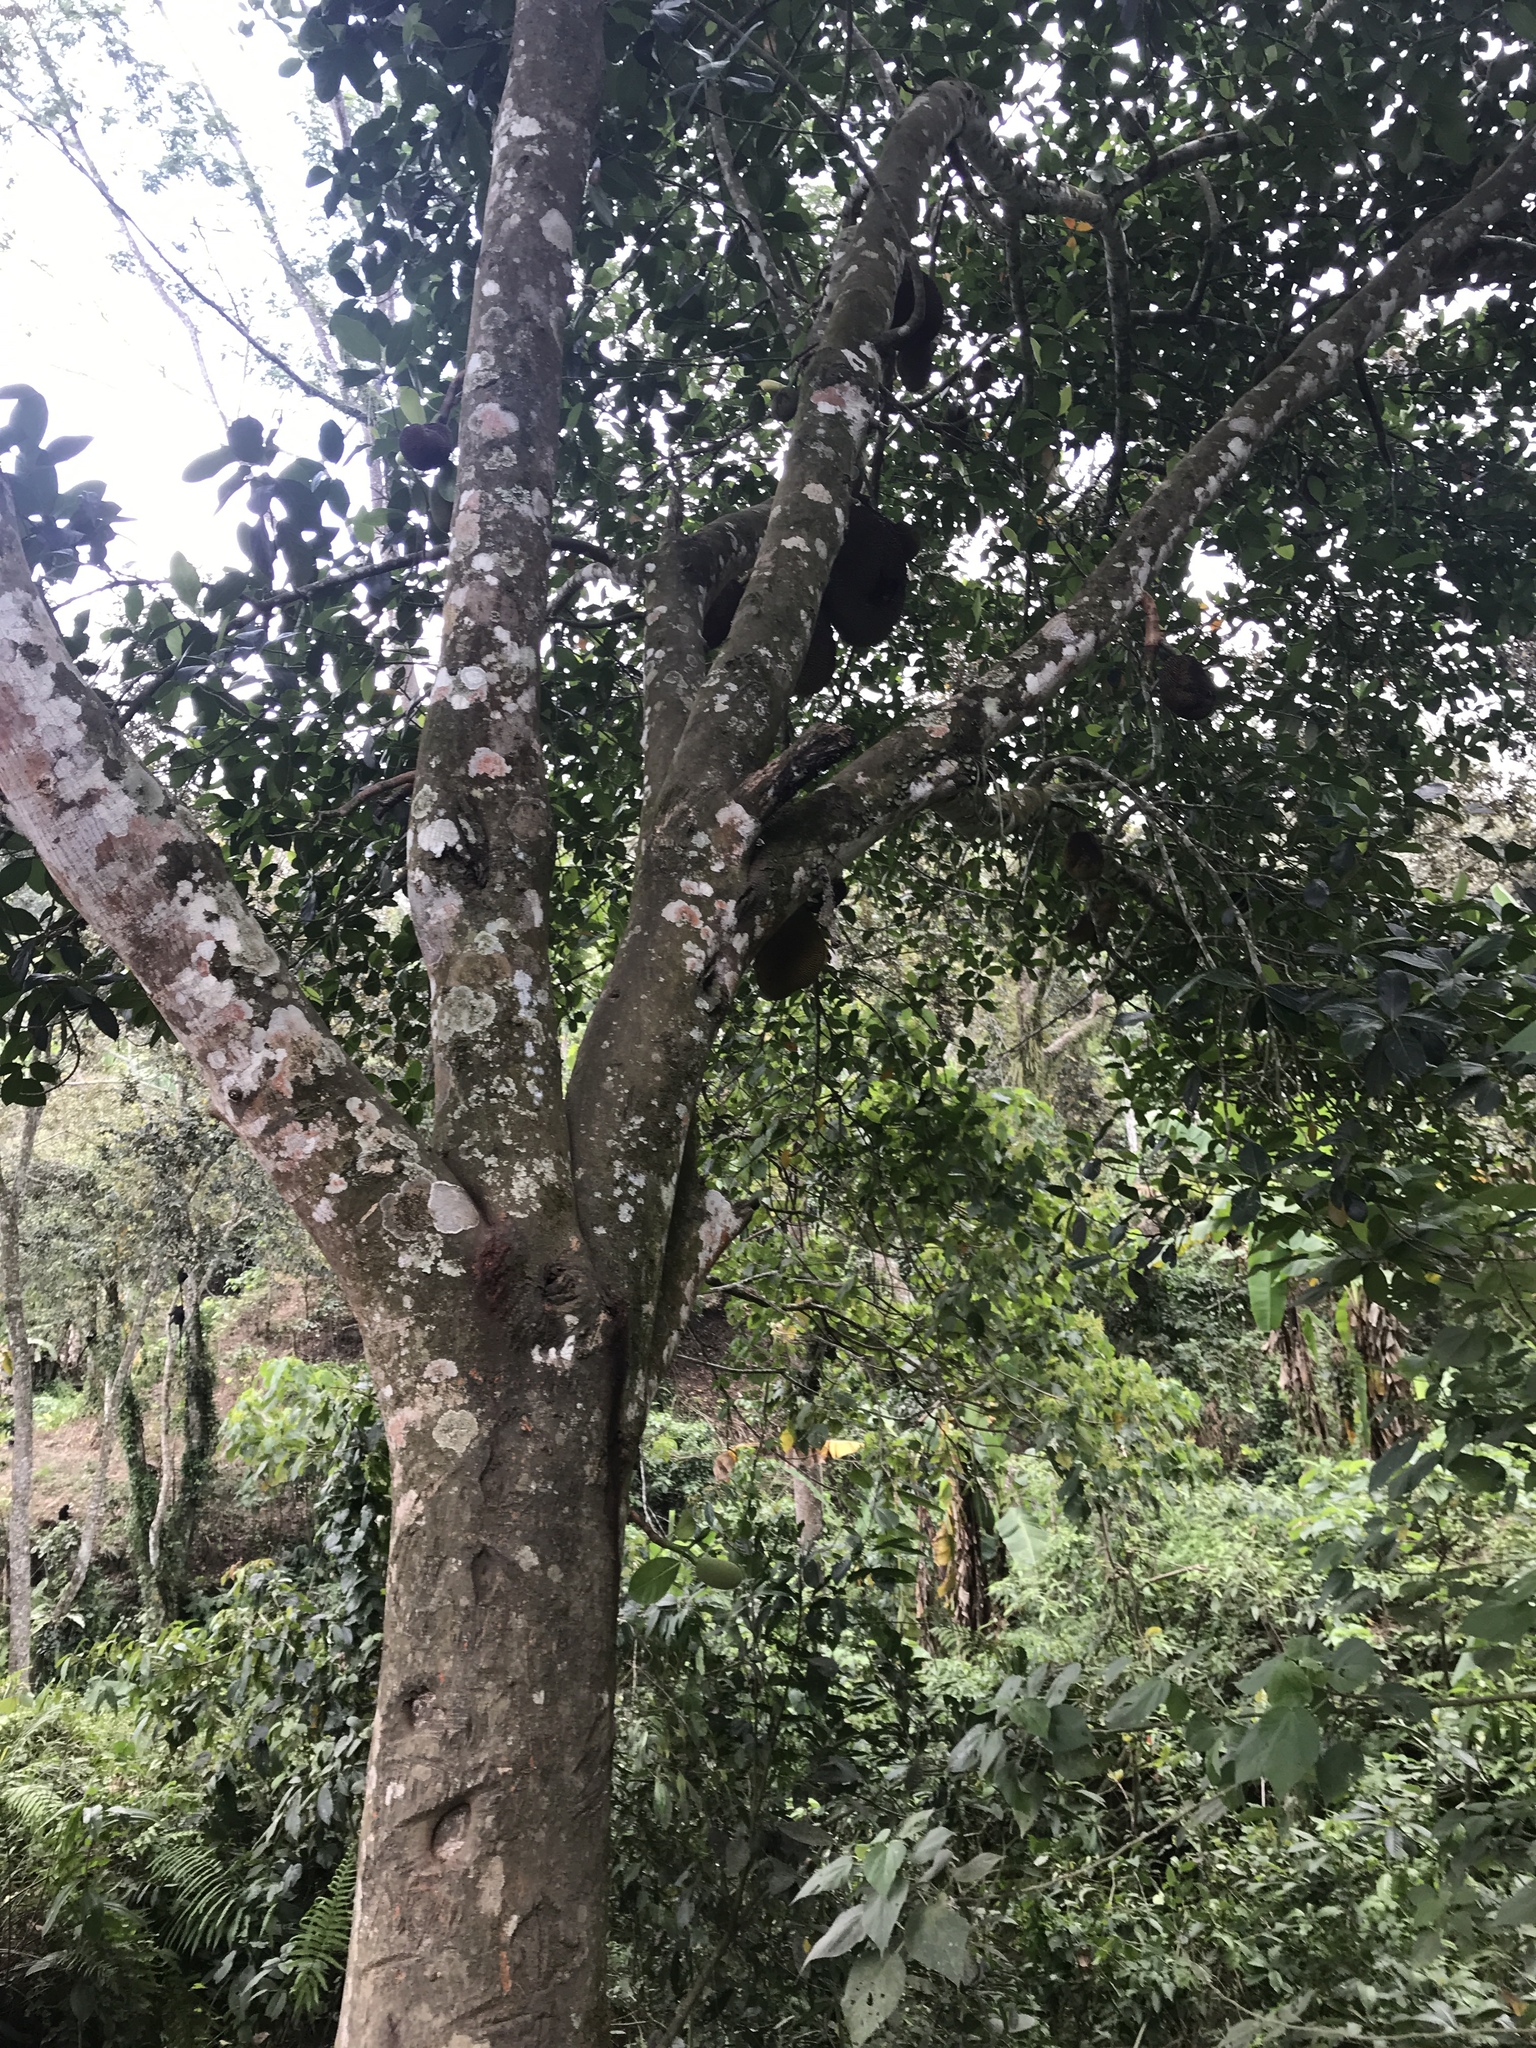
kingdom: Plantae
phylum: Tracheophyta
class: Magnoliopsida
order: Rosales
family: Moraceae
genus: Artocarpus
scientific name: Artocarpus heterophyllus
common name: Jackfruit
